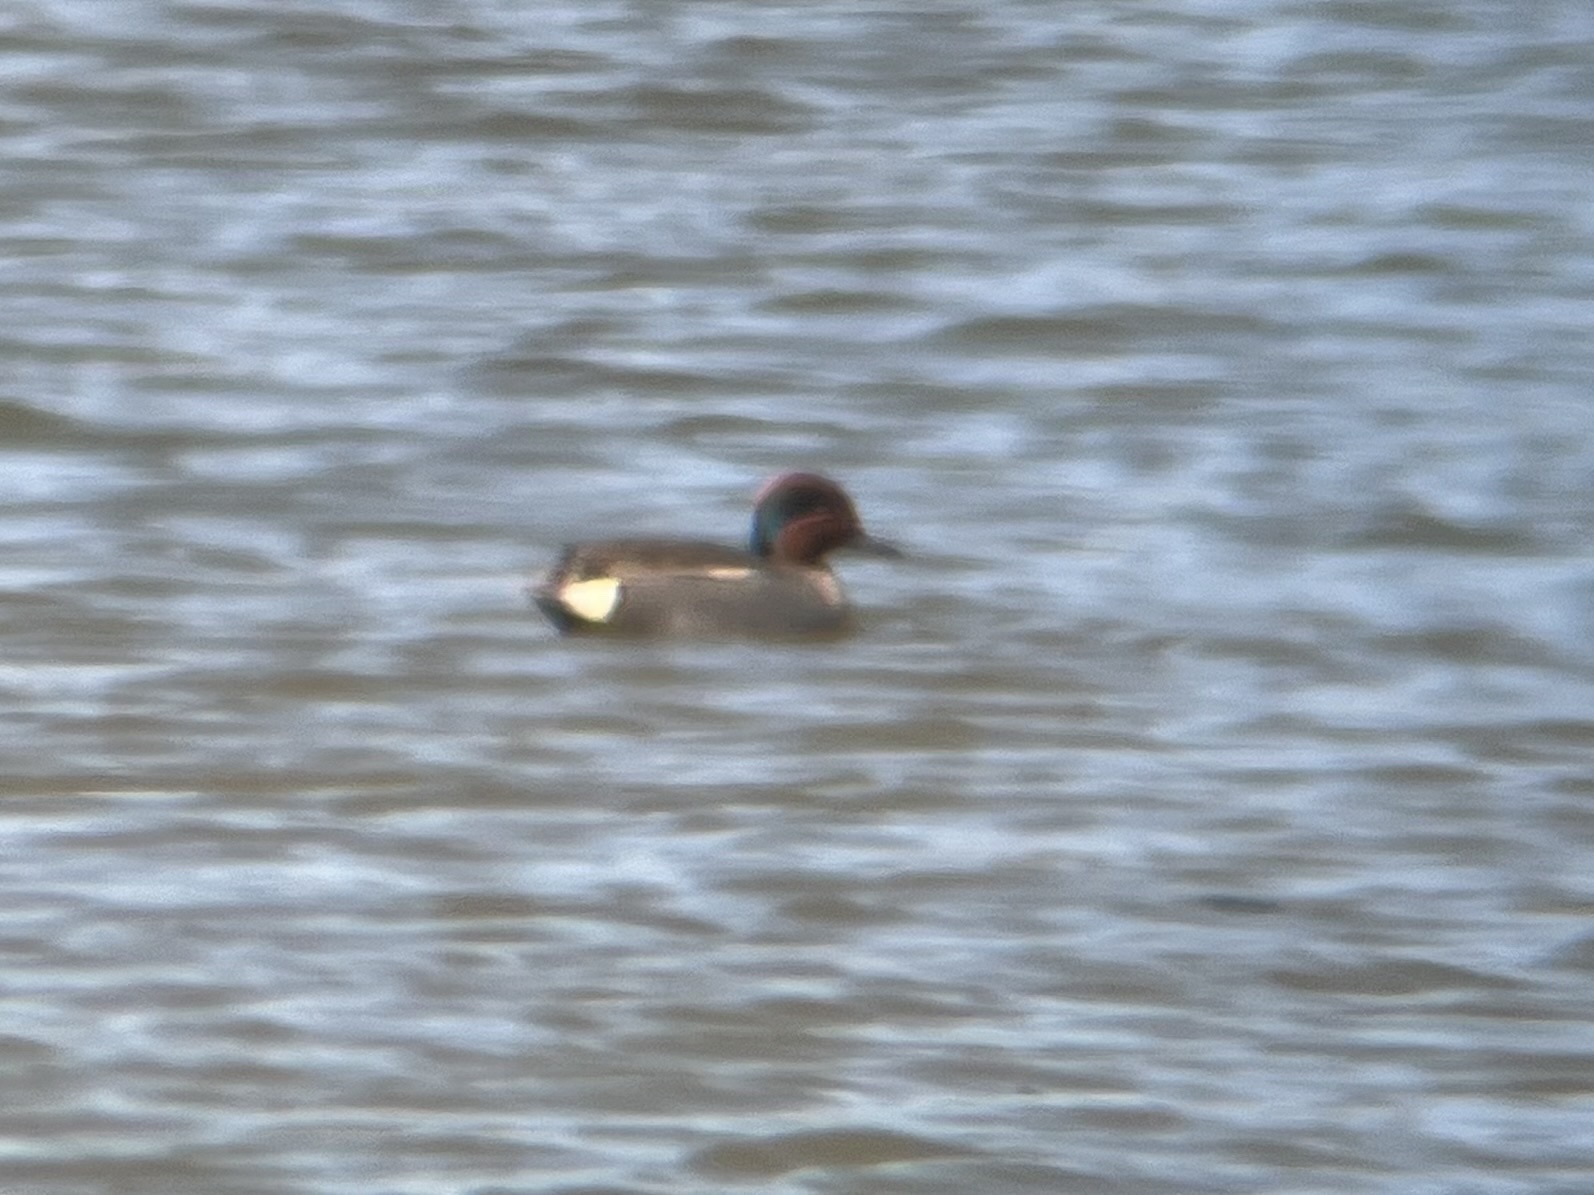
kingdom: Animalia
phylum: Chordata
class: Aves
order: Anseriformes
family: Anatidae
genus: Anas
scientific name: Anas
